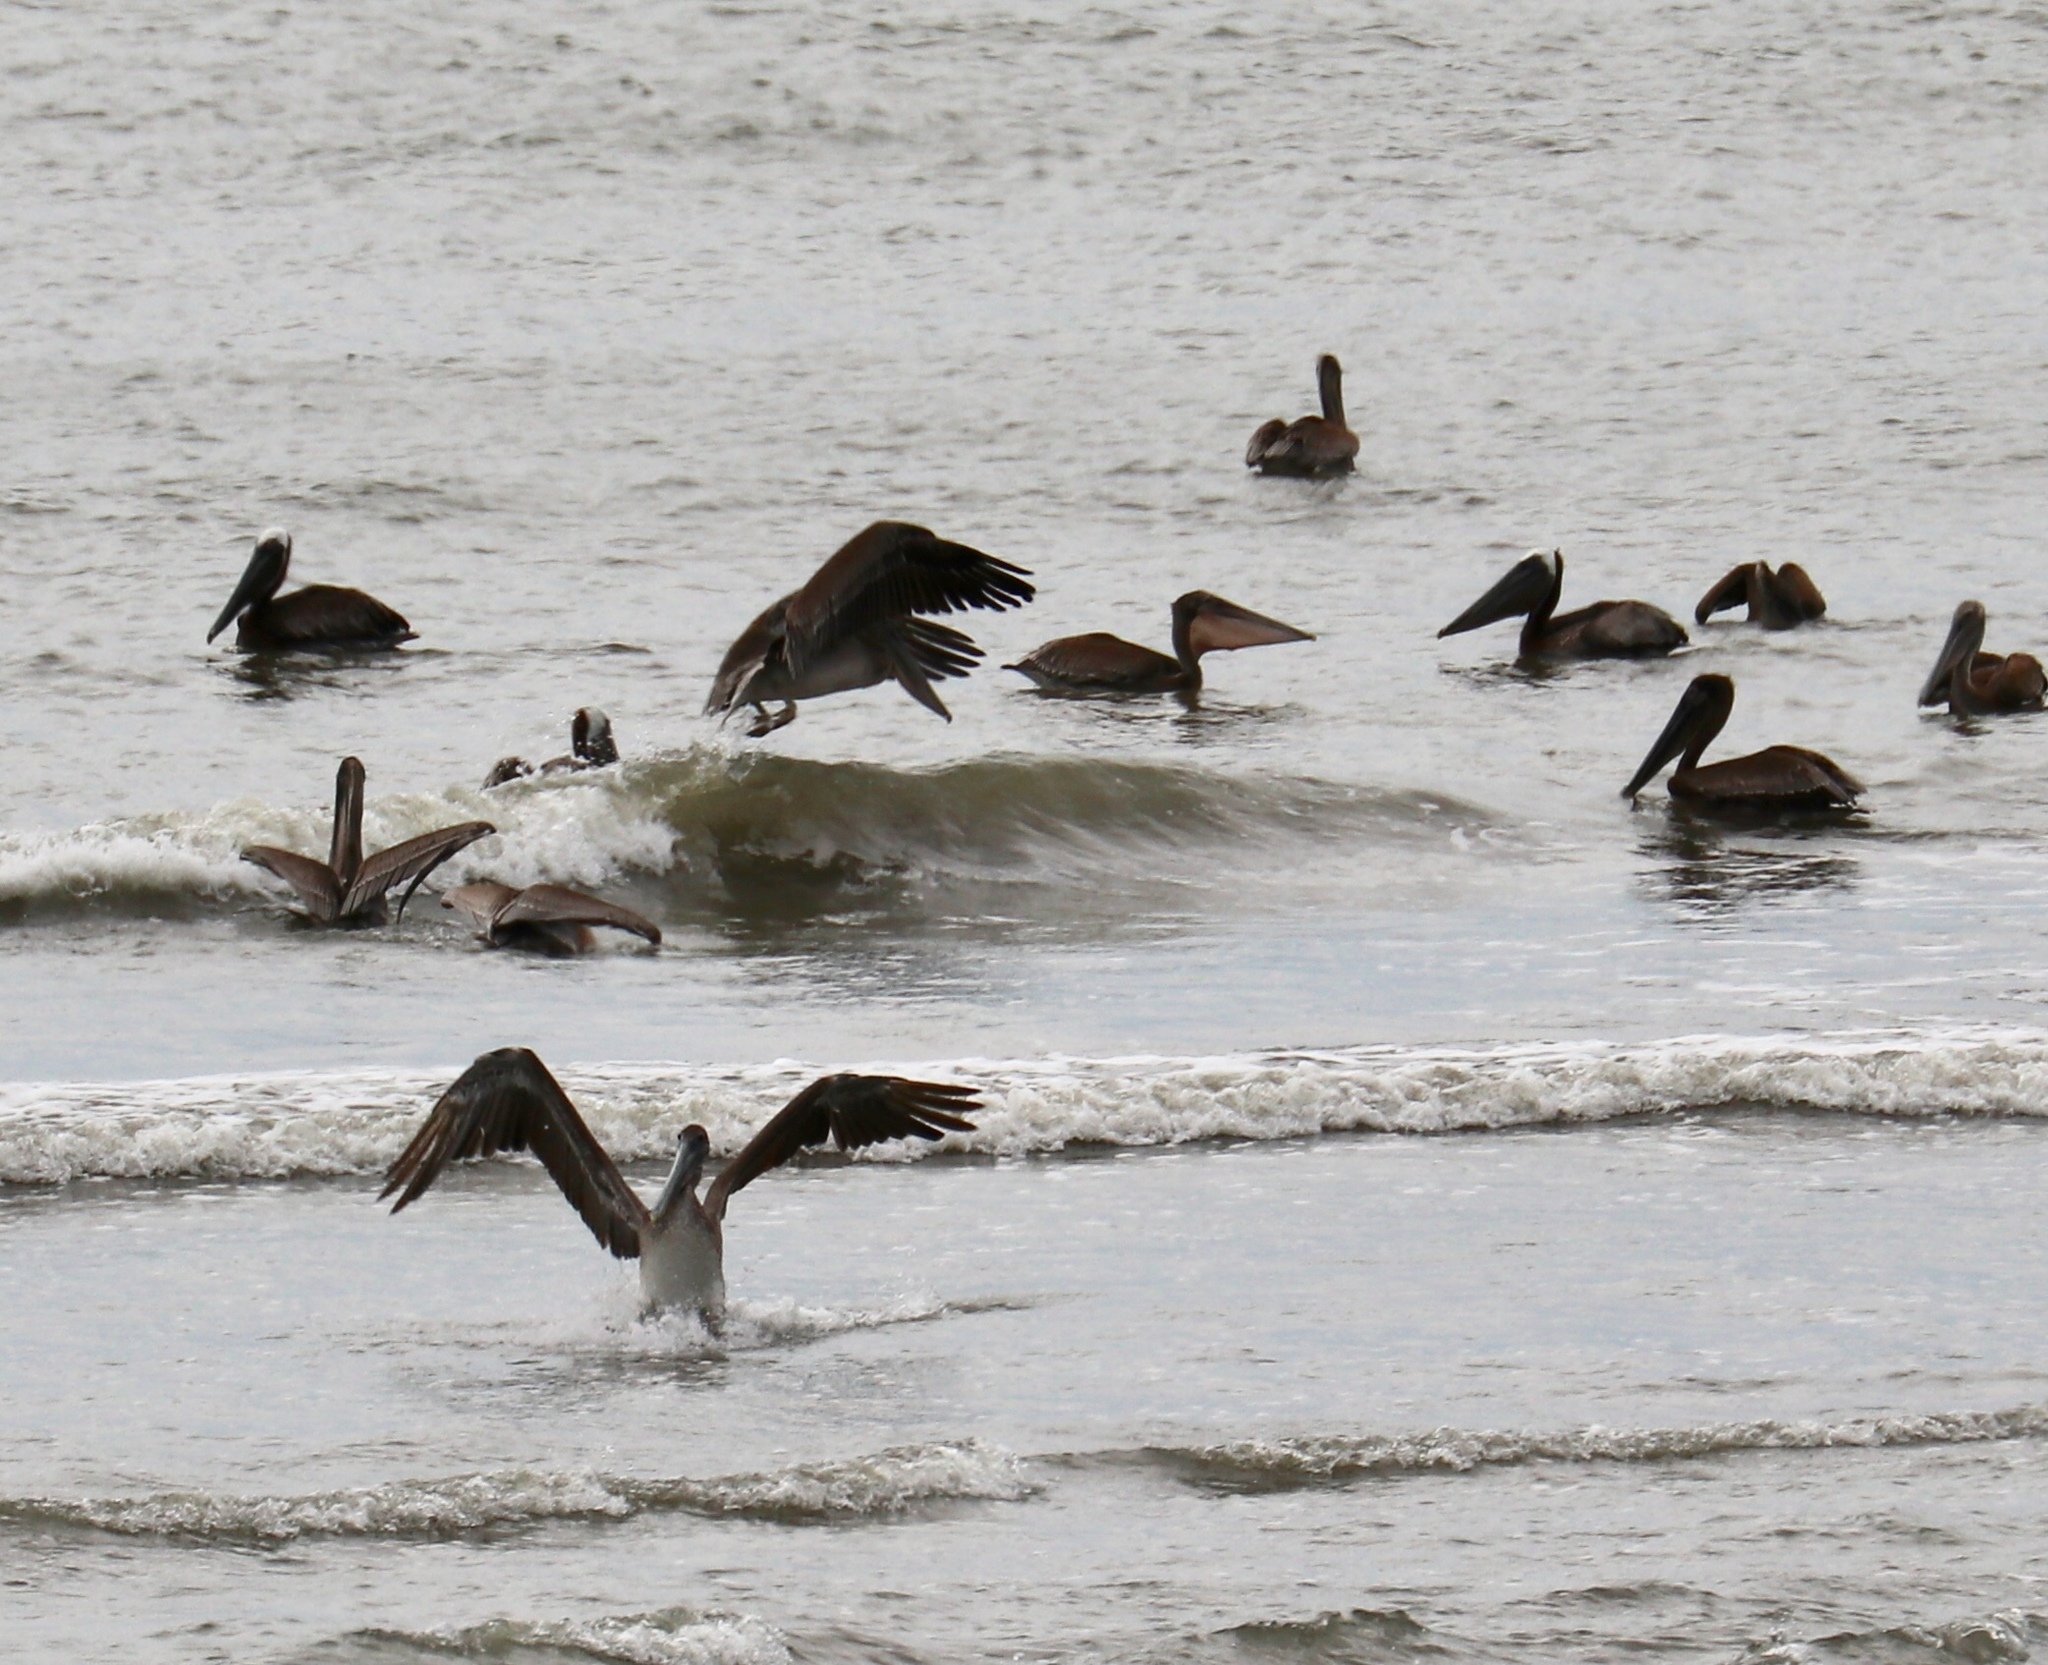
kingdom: Animalia
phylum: Chordata
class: Aves
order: Pelecaniformes
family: Pelecanidae
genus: Pelecanus
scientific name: Pelecanus occidentalis
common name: Brown pelican
